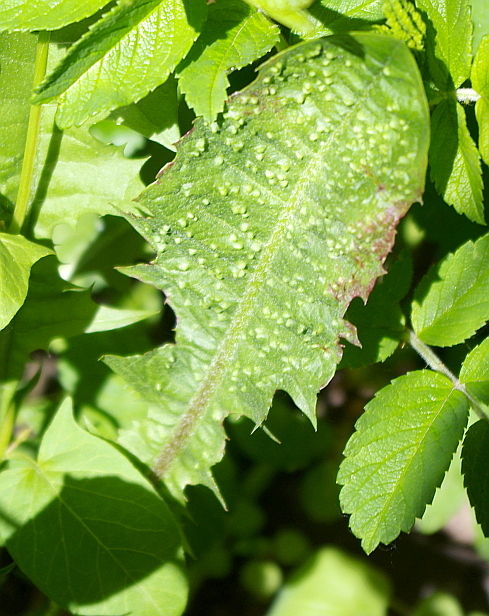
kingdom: Animalia
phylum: Arthropoda
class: Insecta
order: Hemiptera
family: Triozidae
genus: Trioza
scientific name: Trioza dispar
